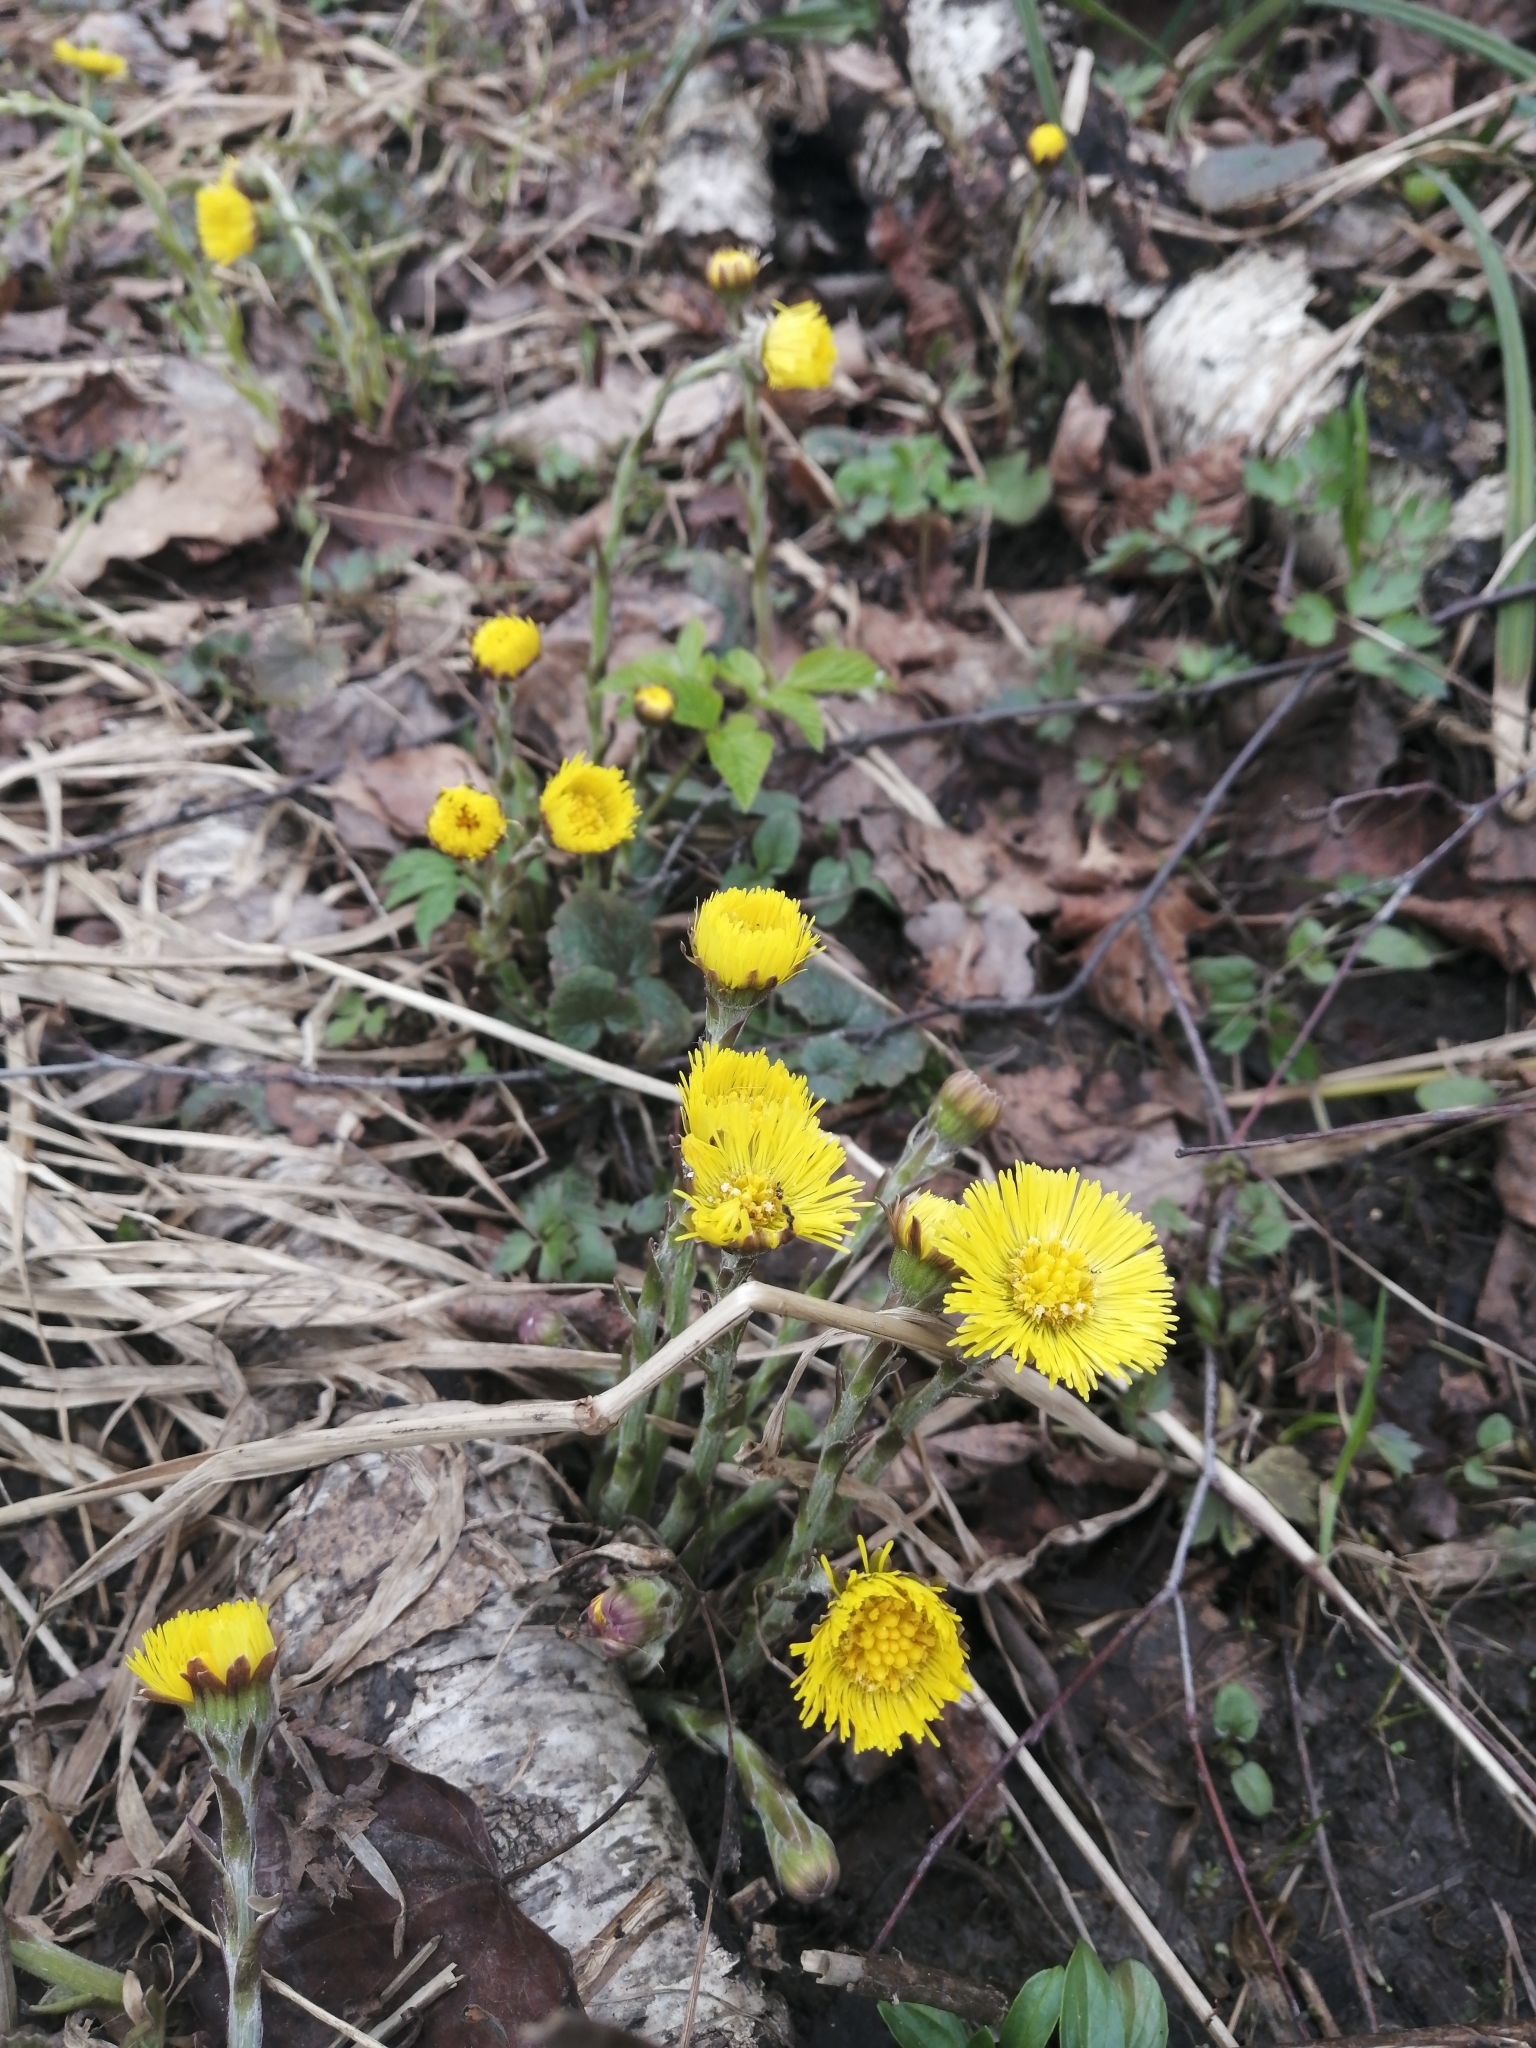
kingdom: Plantae
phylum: Tracheophyta
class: Magnoliopsida
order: Asterales
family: Asteraceae
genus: Tussilago
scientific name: Tussilago farfara
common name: Coltsfoot
